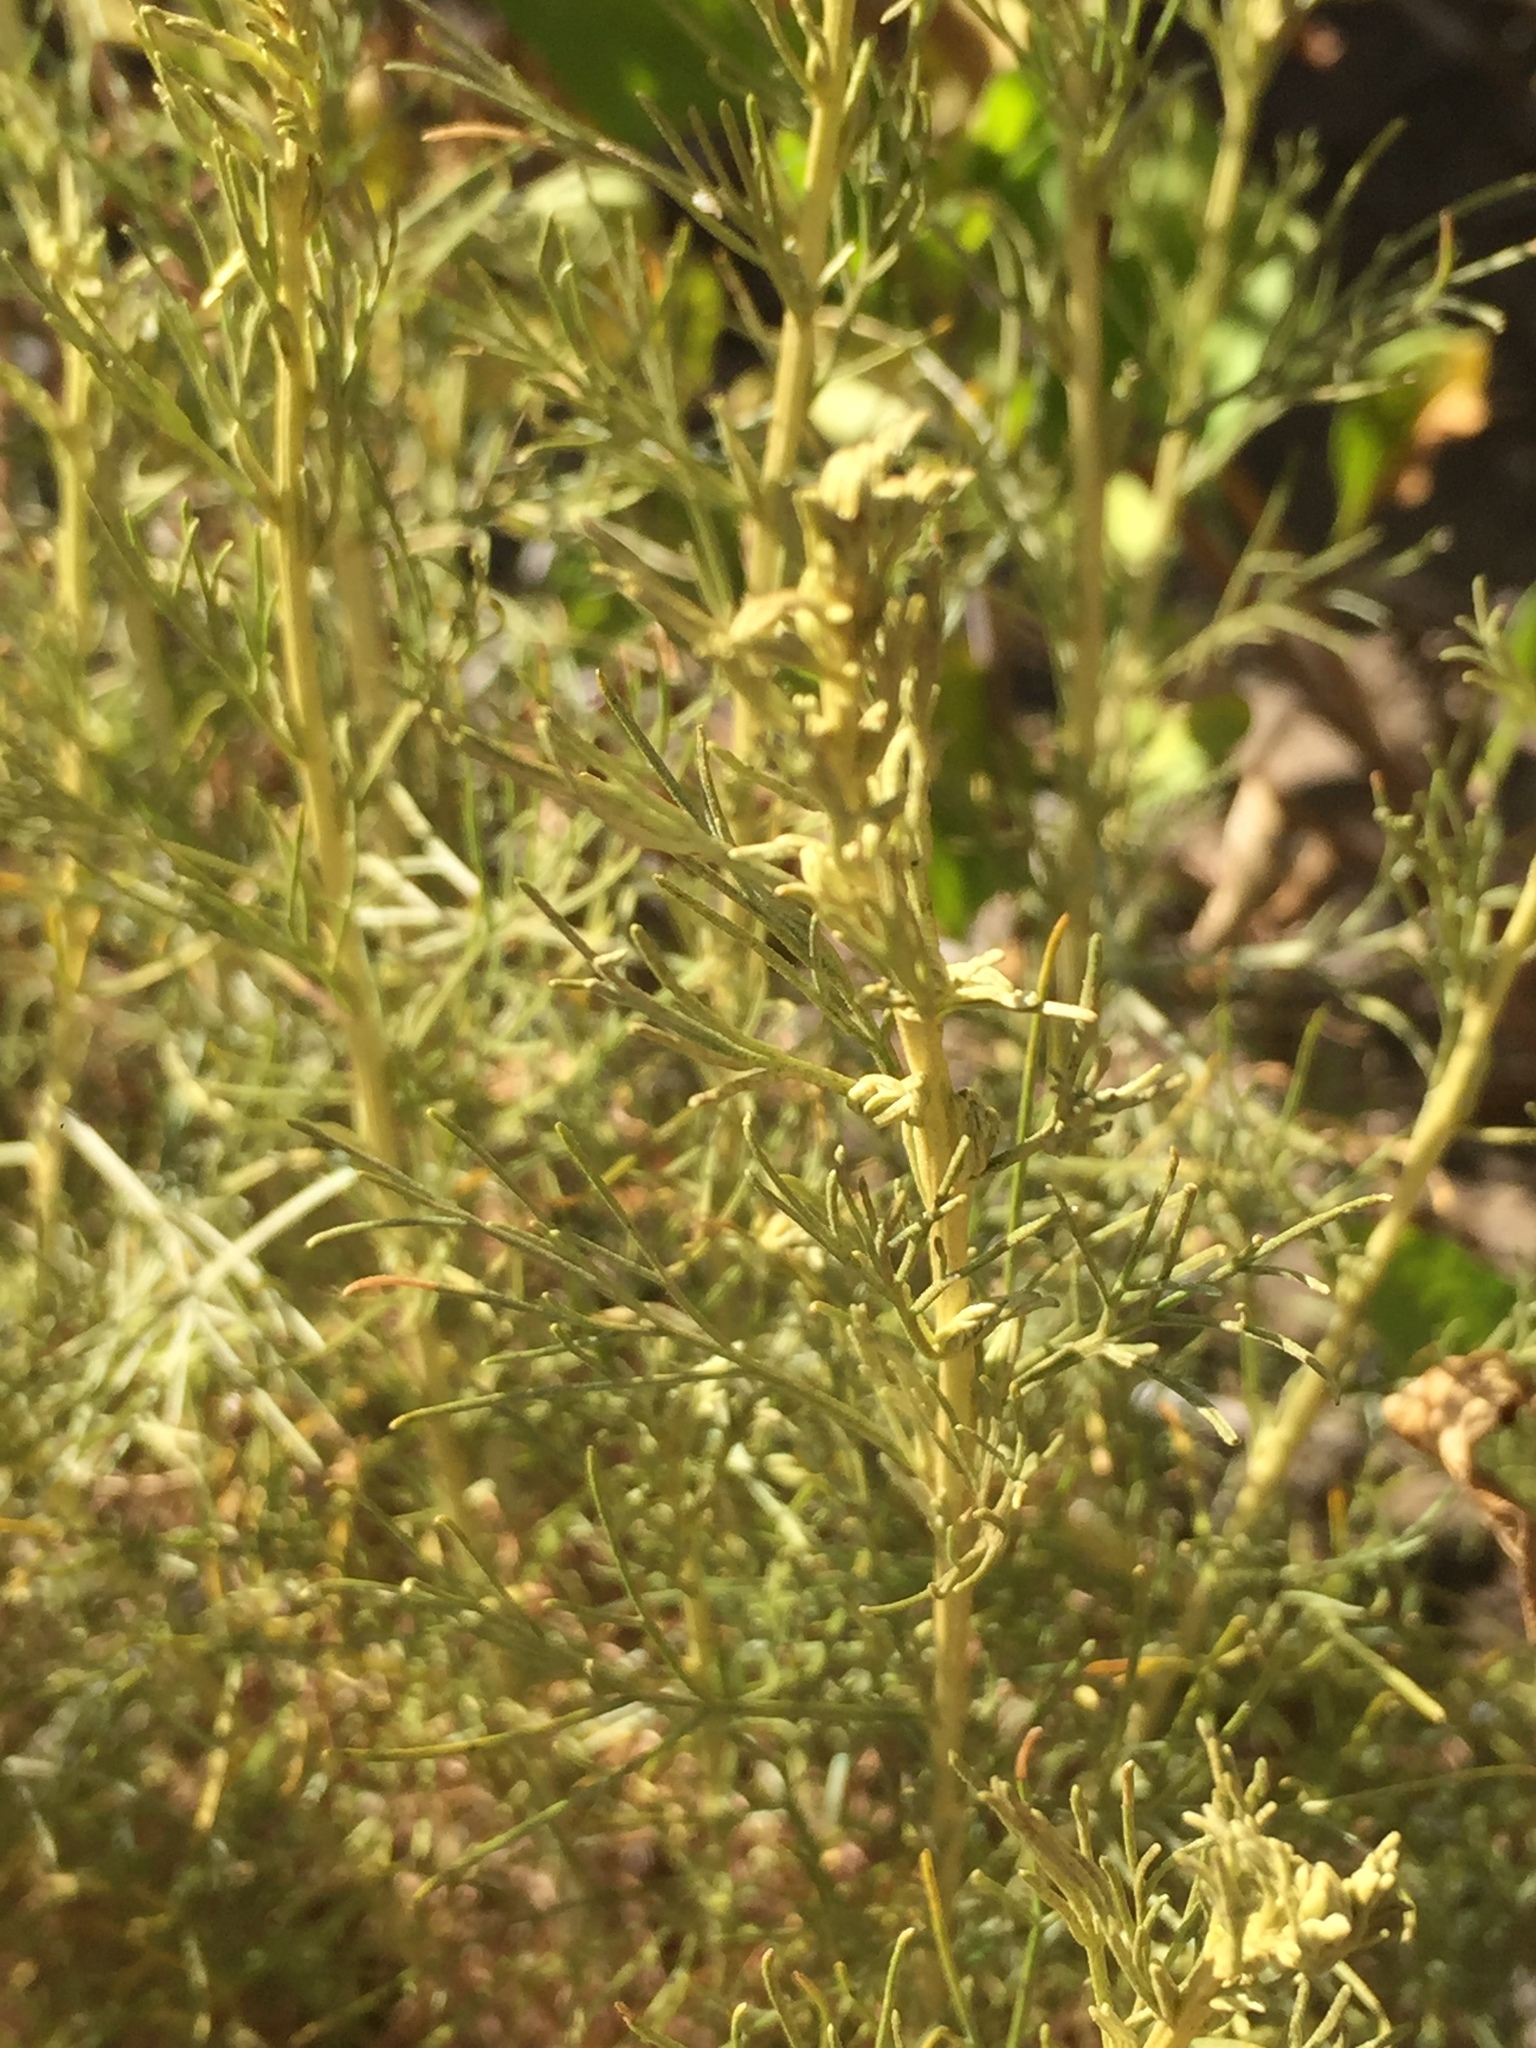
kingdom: Plantae
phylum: Tracheophyta
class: Magnoliopsida
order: Asterales
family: Asteraceae
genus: Artemisia
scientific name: Artemisia californica
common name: California sagebrush
